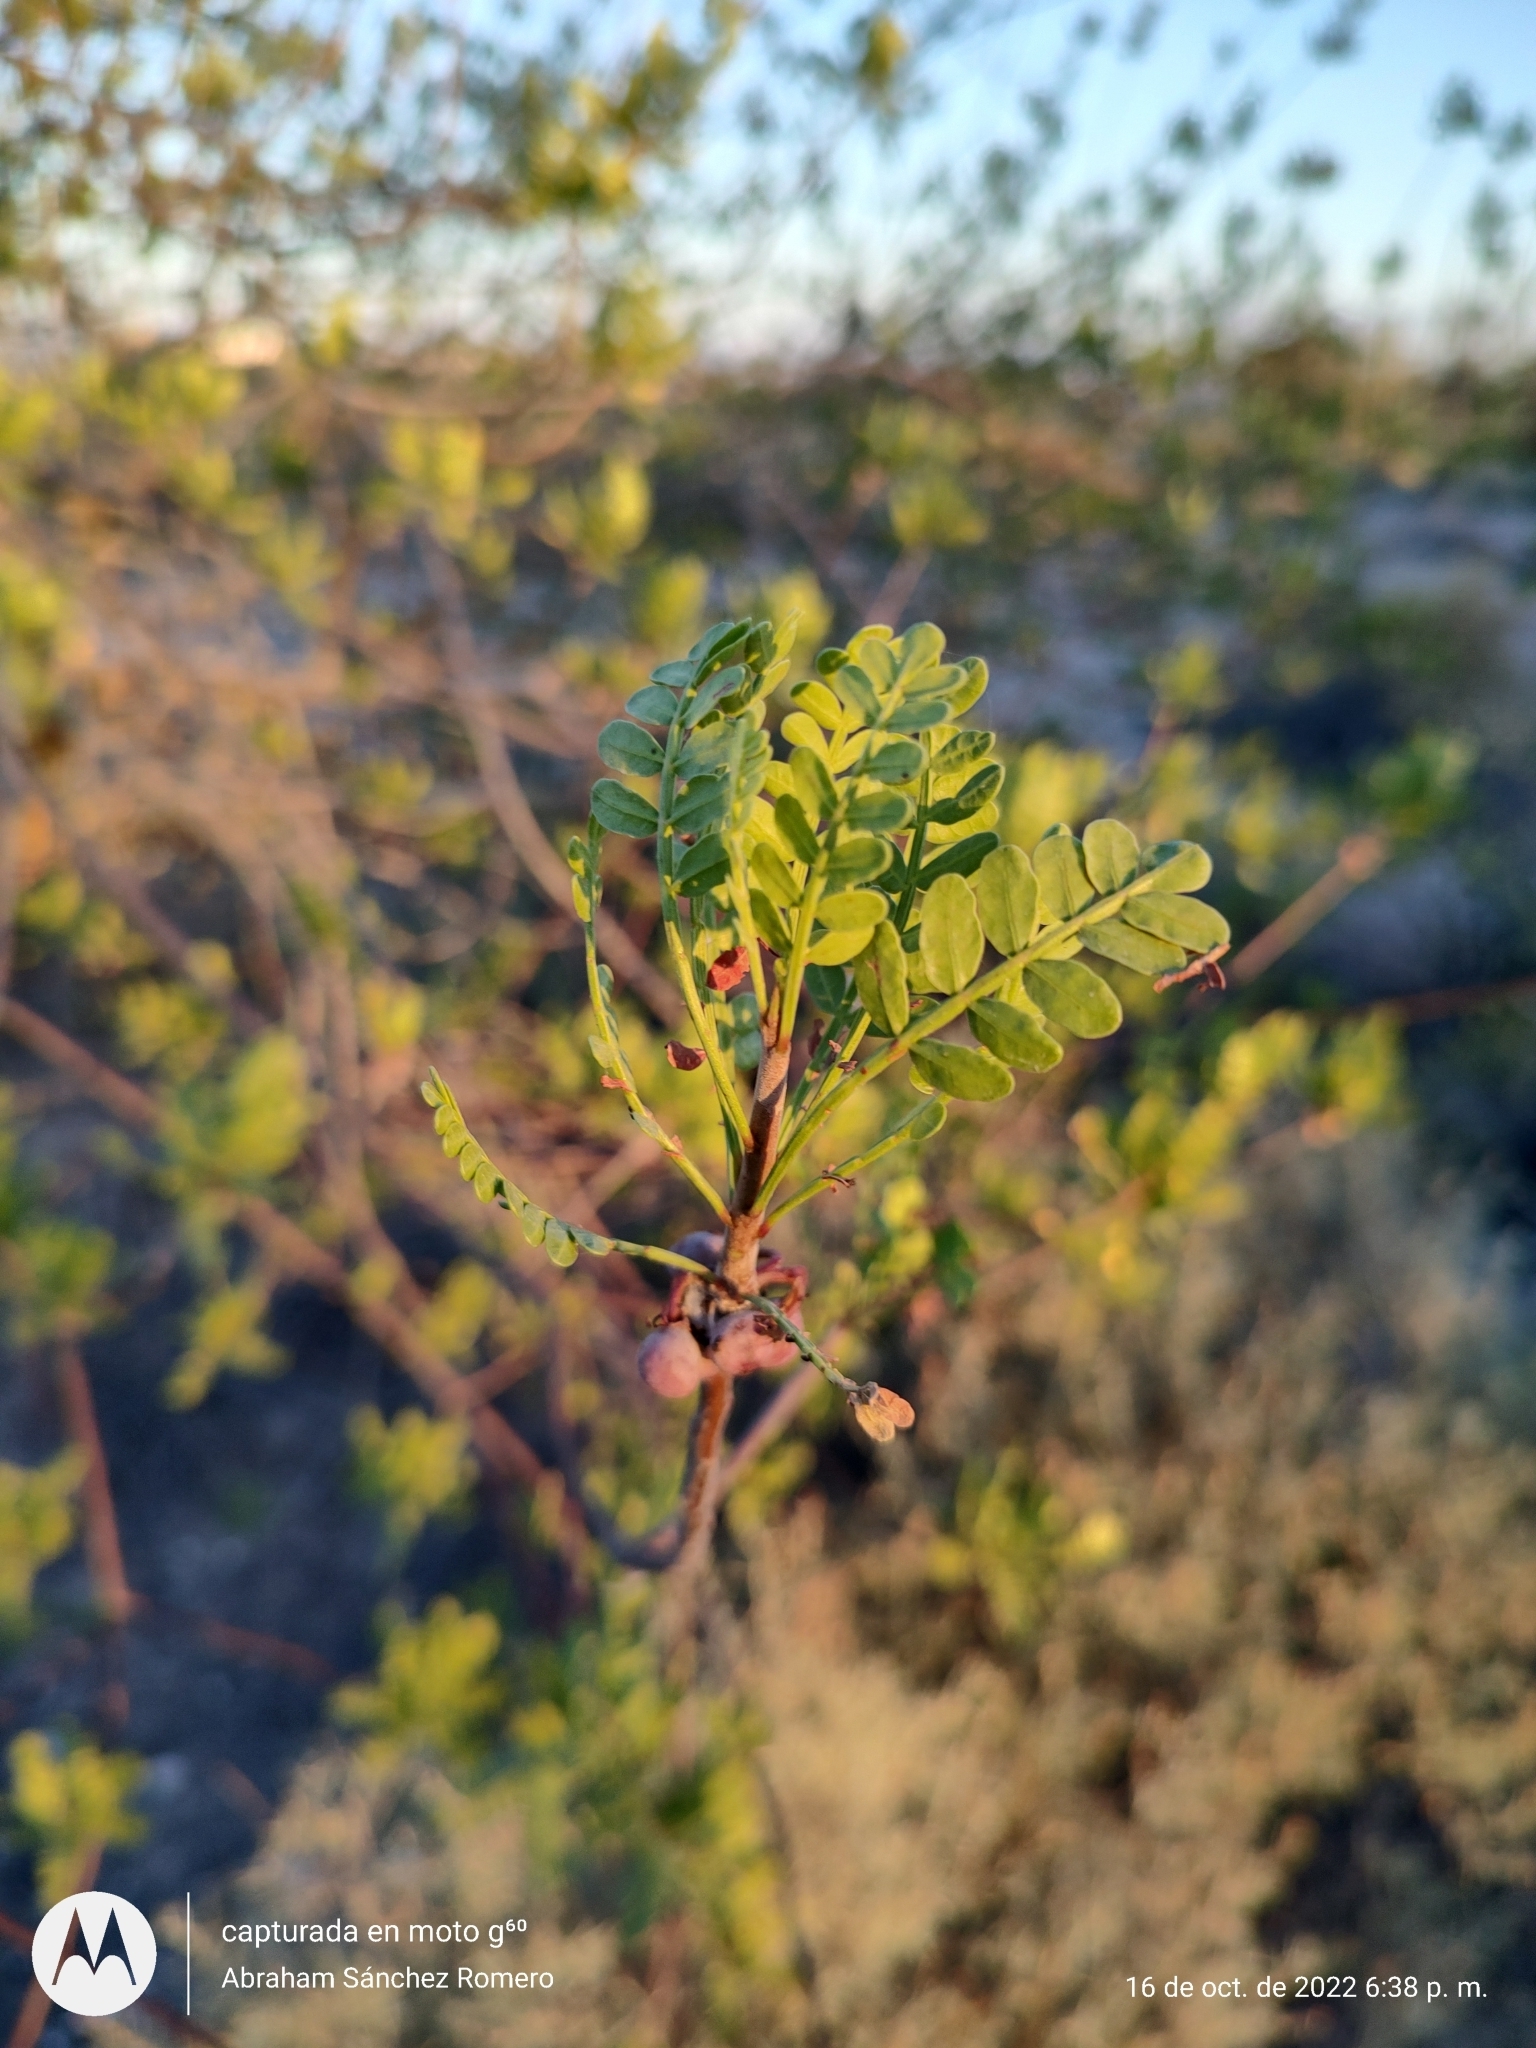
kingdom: Plantae
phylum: Tracheophyta
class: Magnoliopsida
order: Sapindales
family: Burseraceae
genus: Bursera
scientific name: Bursera microphylla
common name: Elephant tree
